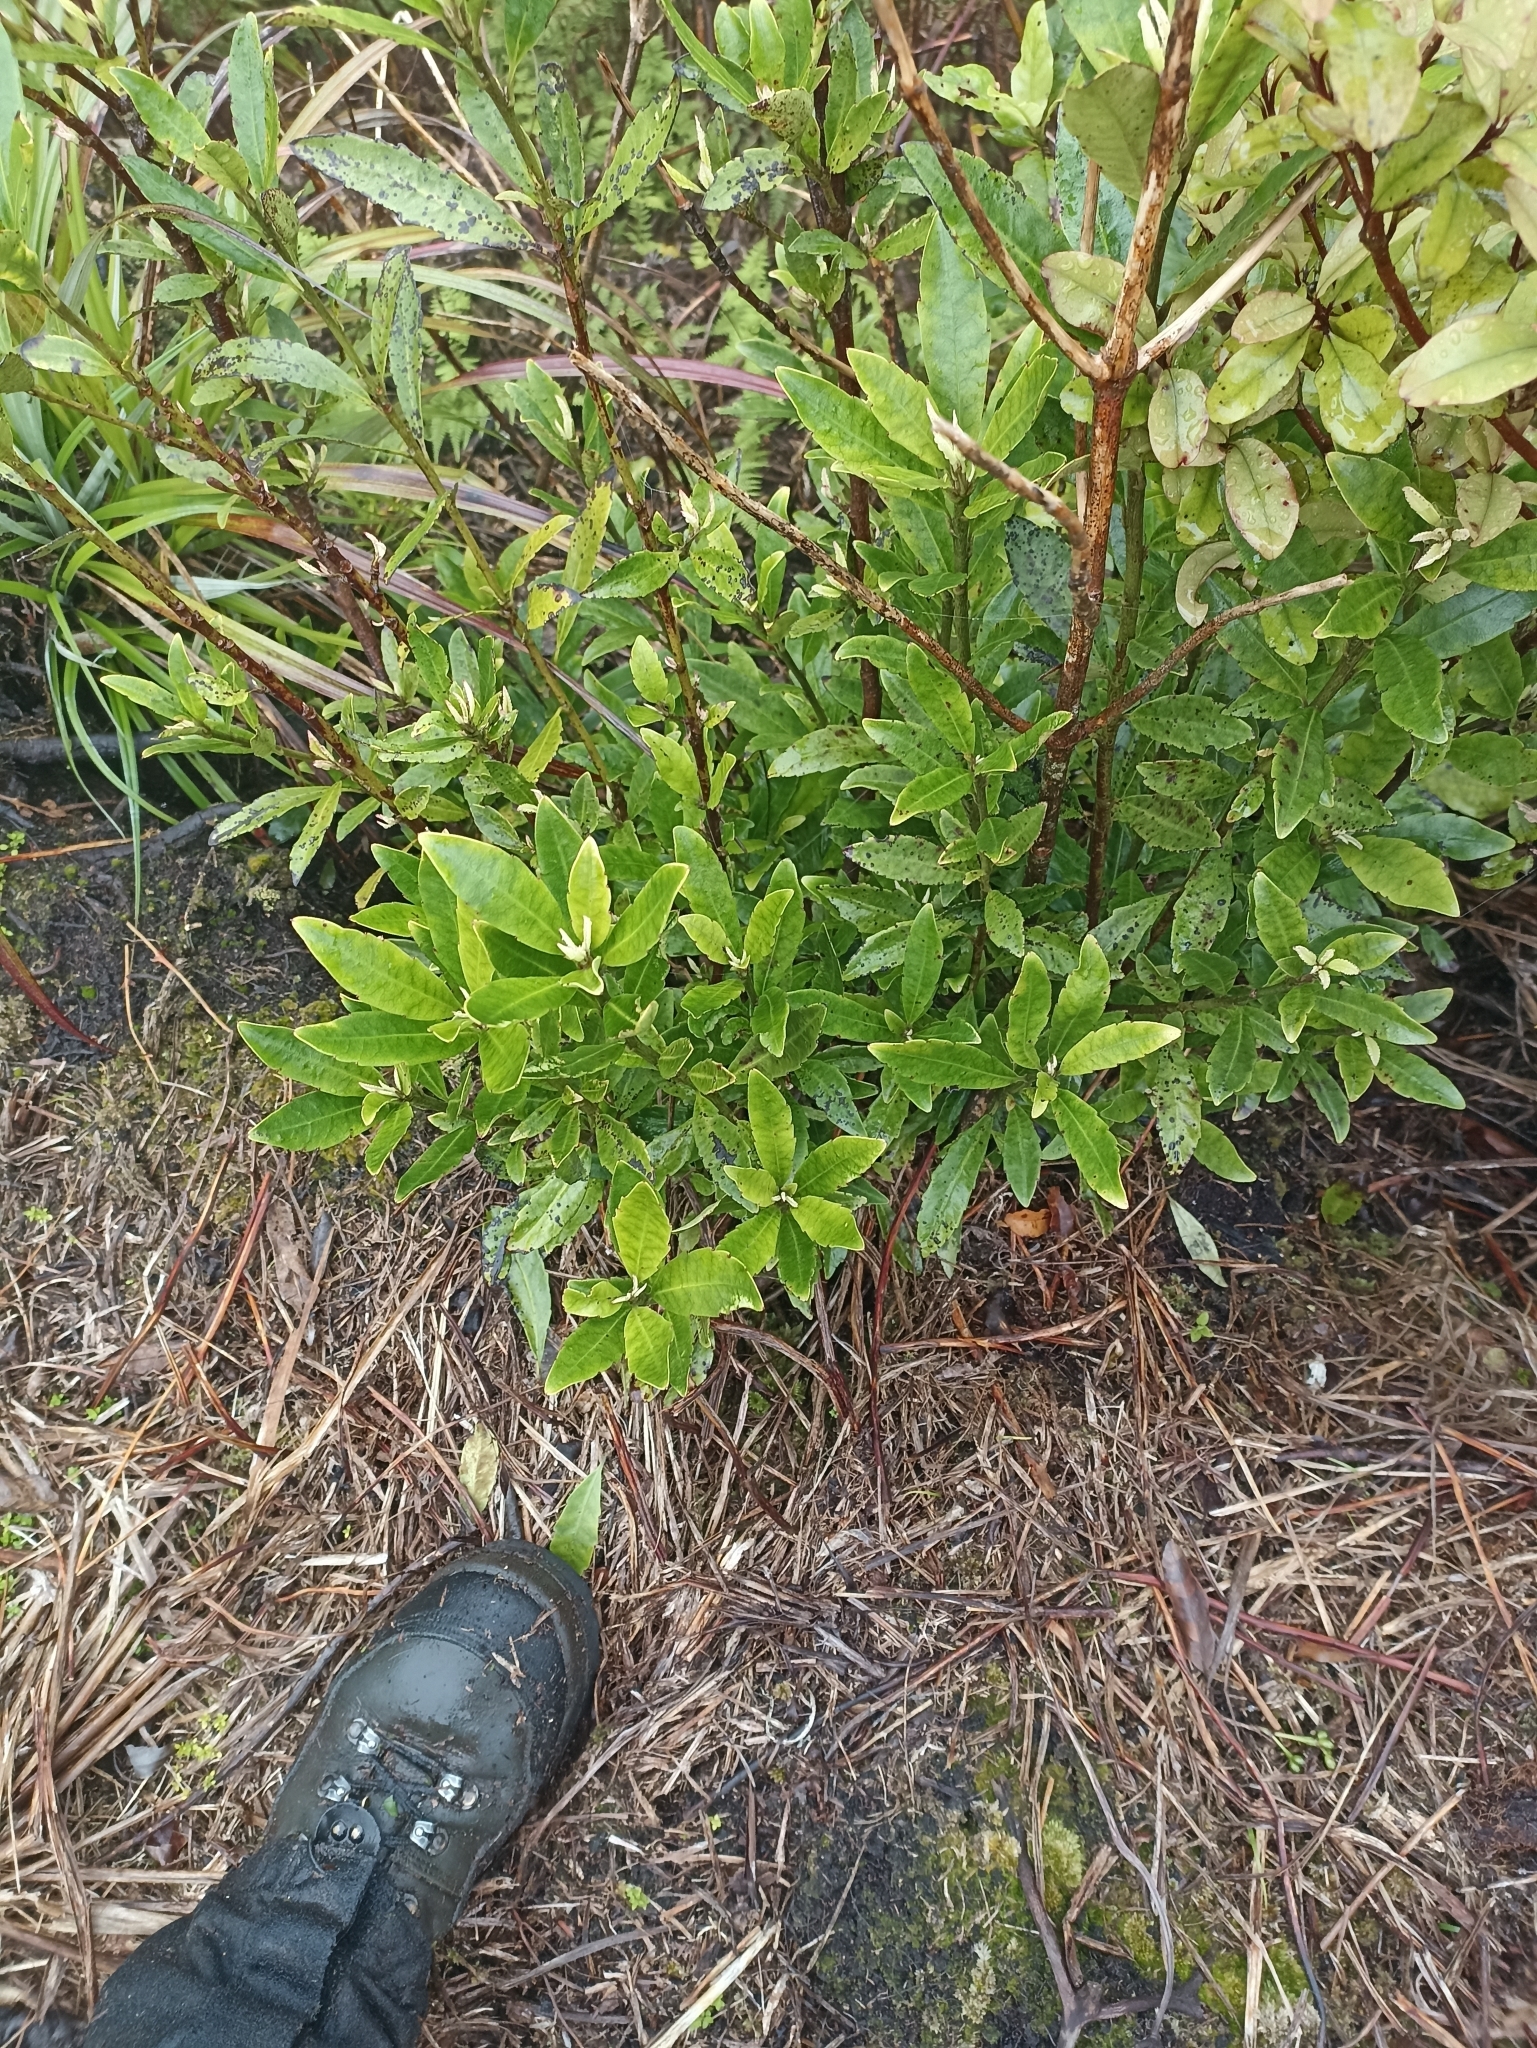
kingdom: Plantae
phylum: Tracheophyta
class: Magnoliopsida
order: Asterales
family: Alseuosmiaceae
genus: Alseuosmia
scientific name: Alseuosmia macrophylla
